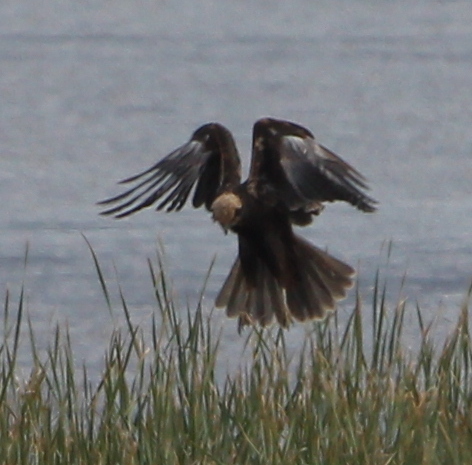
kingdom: Animalia
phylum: Chordata
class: Aves
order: Accipitriformes
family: Accipitridae
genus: Circus
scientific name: Circus aeruginosus
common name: Western marsh harrier
